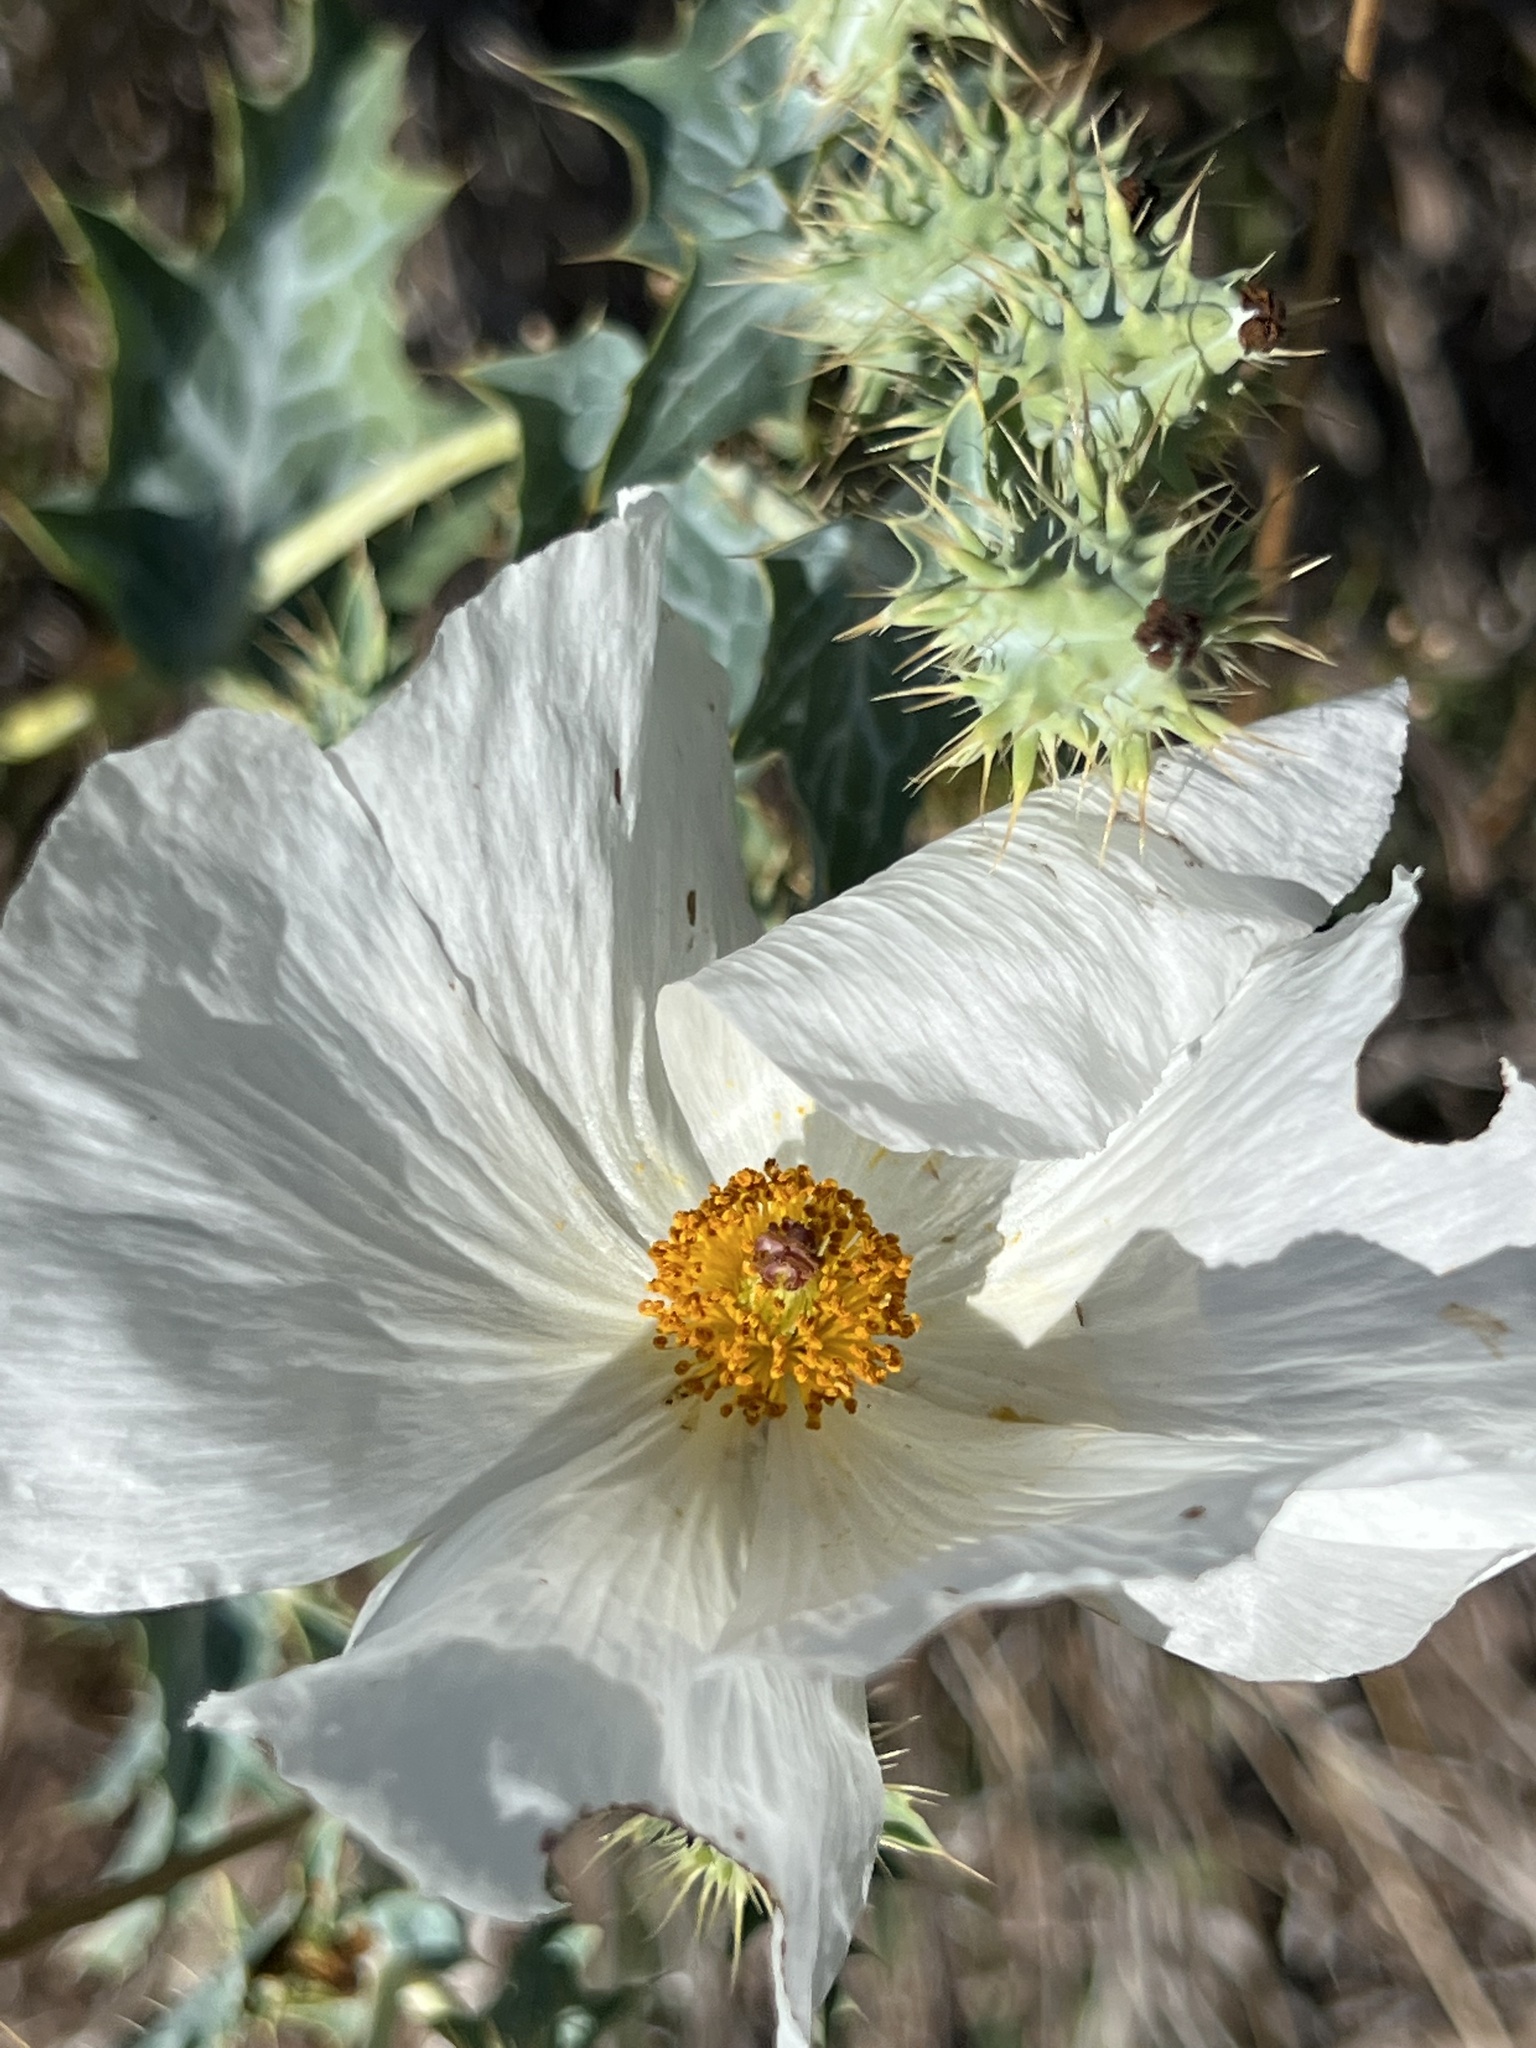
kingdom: Plantae
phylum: Tracheophyta
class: Magnoliopsida
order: Ranunculales
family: Papaveraceae
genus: Argemone
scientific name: Argemone polyanthemos
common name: Plains prickly-poppy
